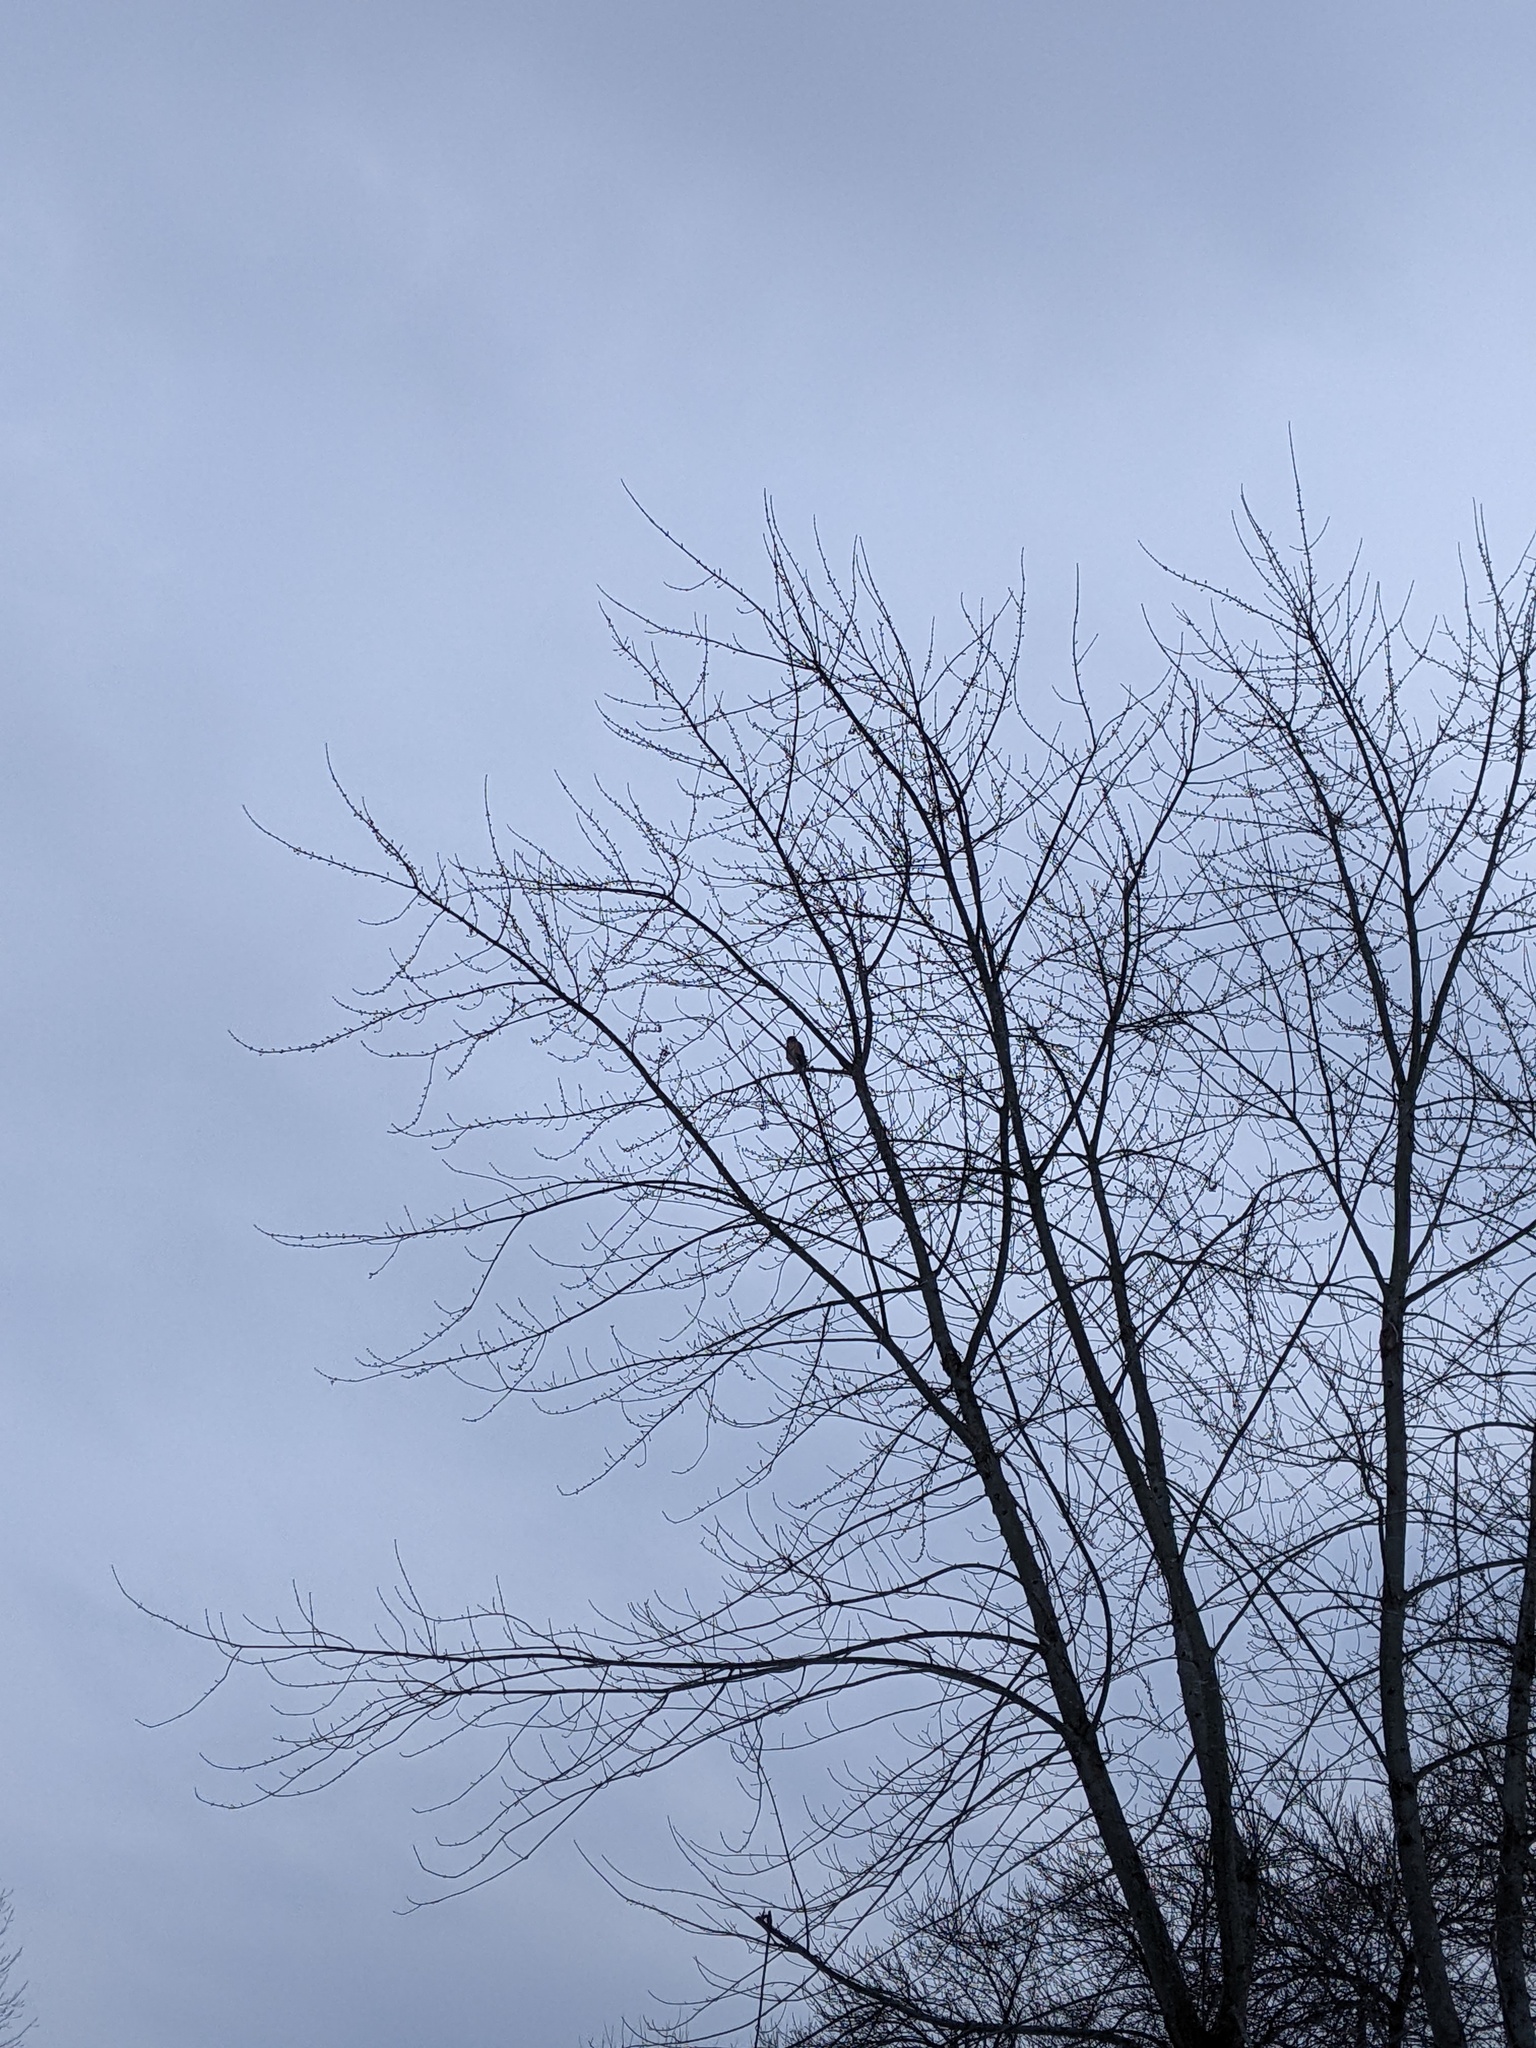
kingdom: Animalia
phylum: Chordata
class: Aves
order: Accipitriformes
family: Accipitridae
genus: Accipiter
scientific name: Accipiter cooperii
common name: Cooper's hawk
